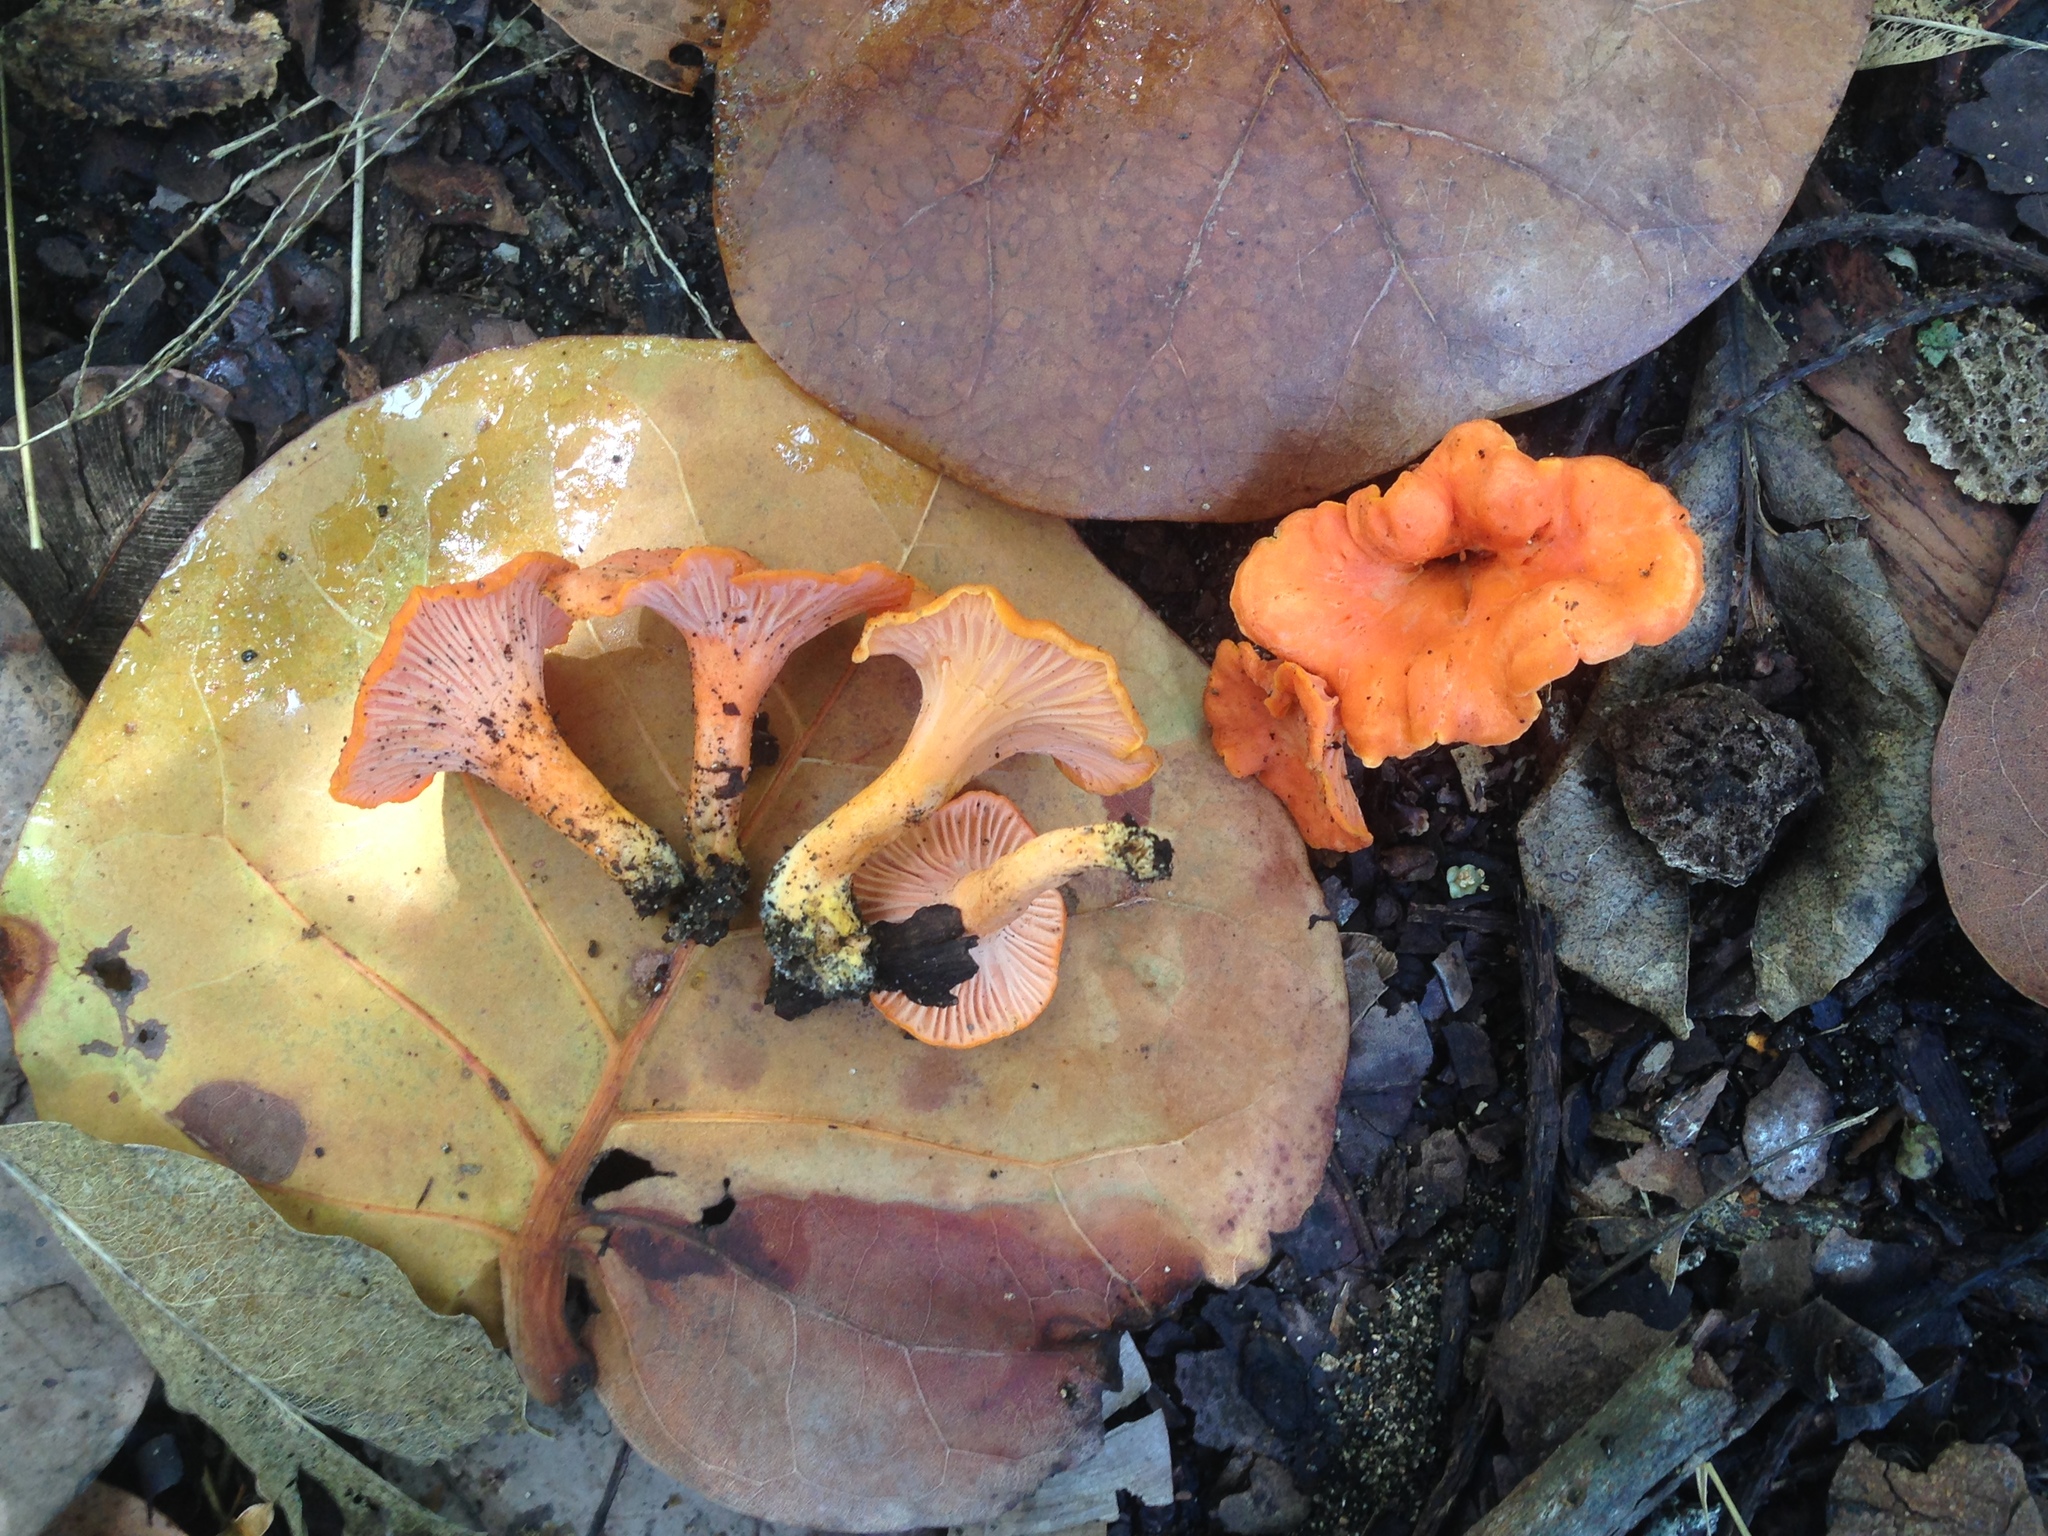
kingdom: Fungi
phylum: Basidiomycota
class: Agaricomycetes
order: Cantharellales
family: Hydnaceae
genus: Cantharellus
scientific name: Cantharellus coccolobae
